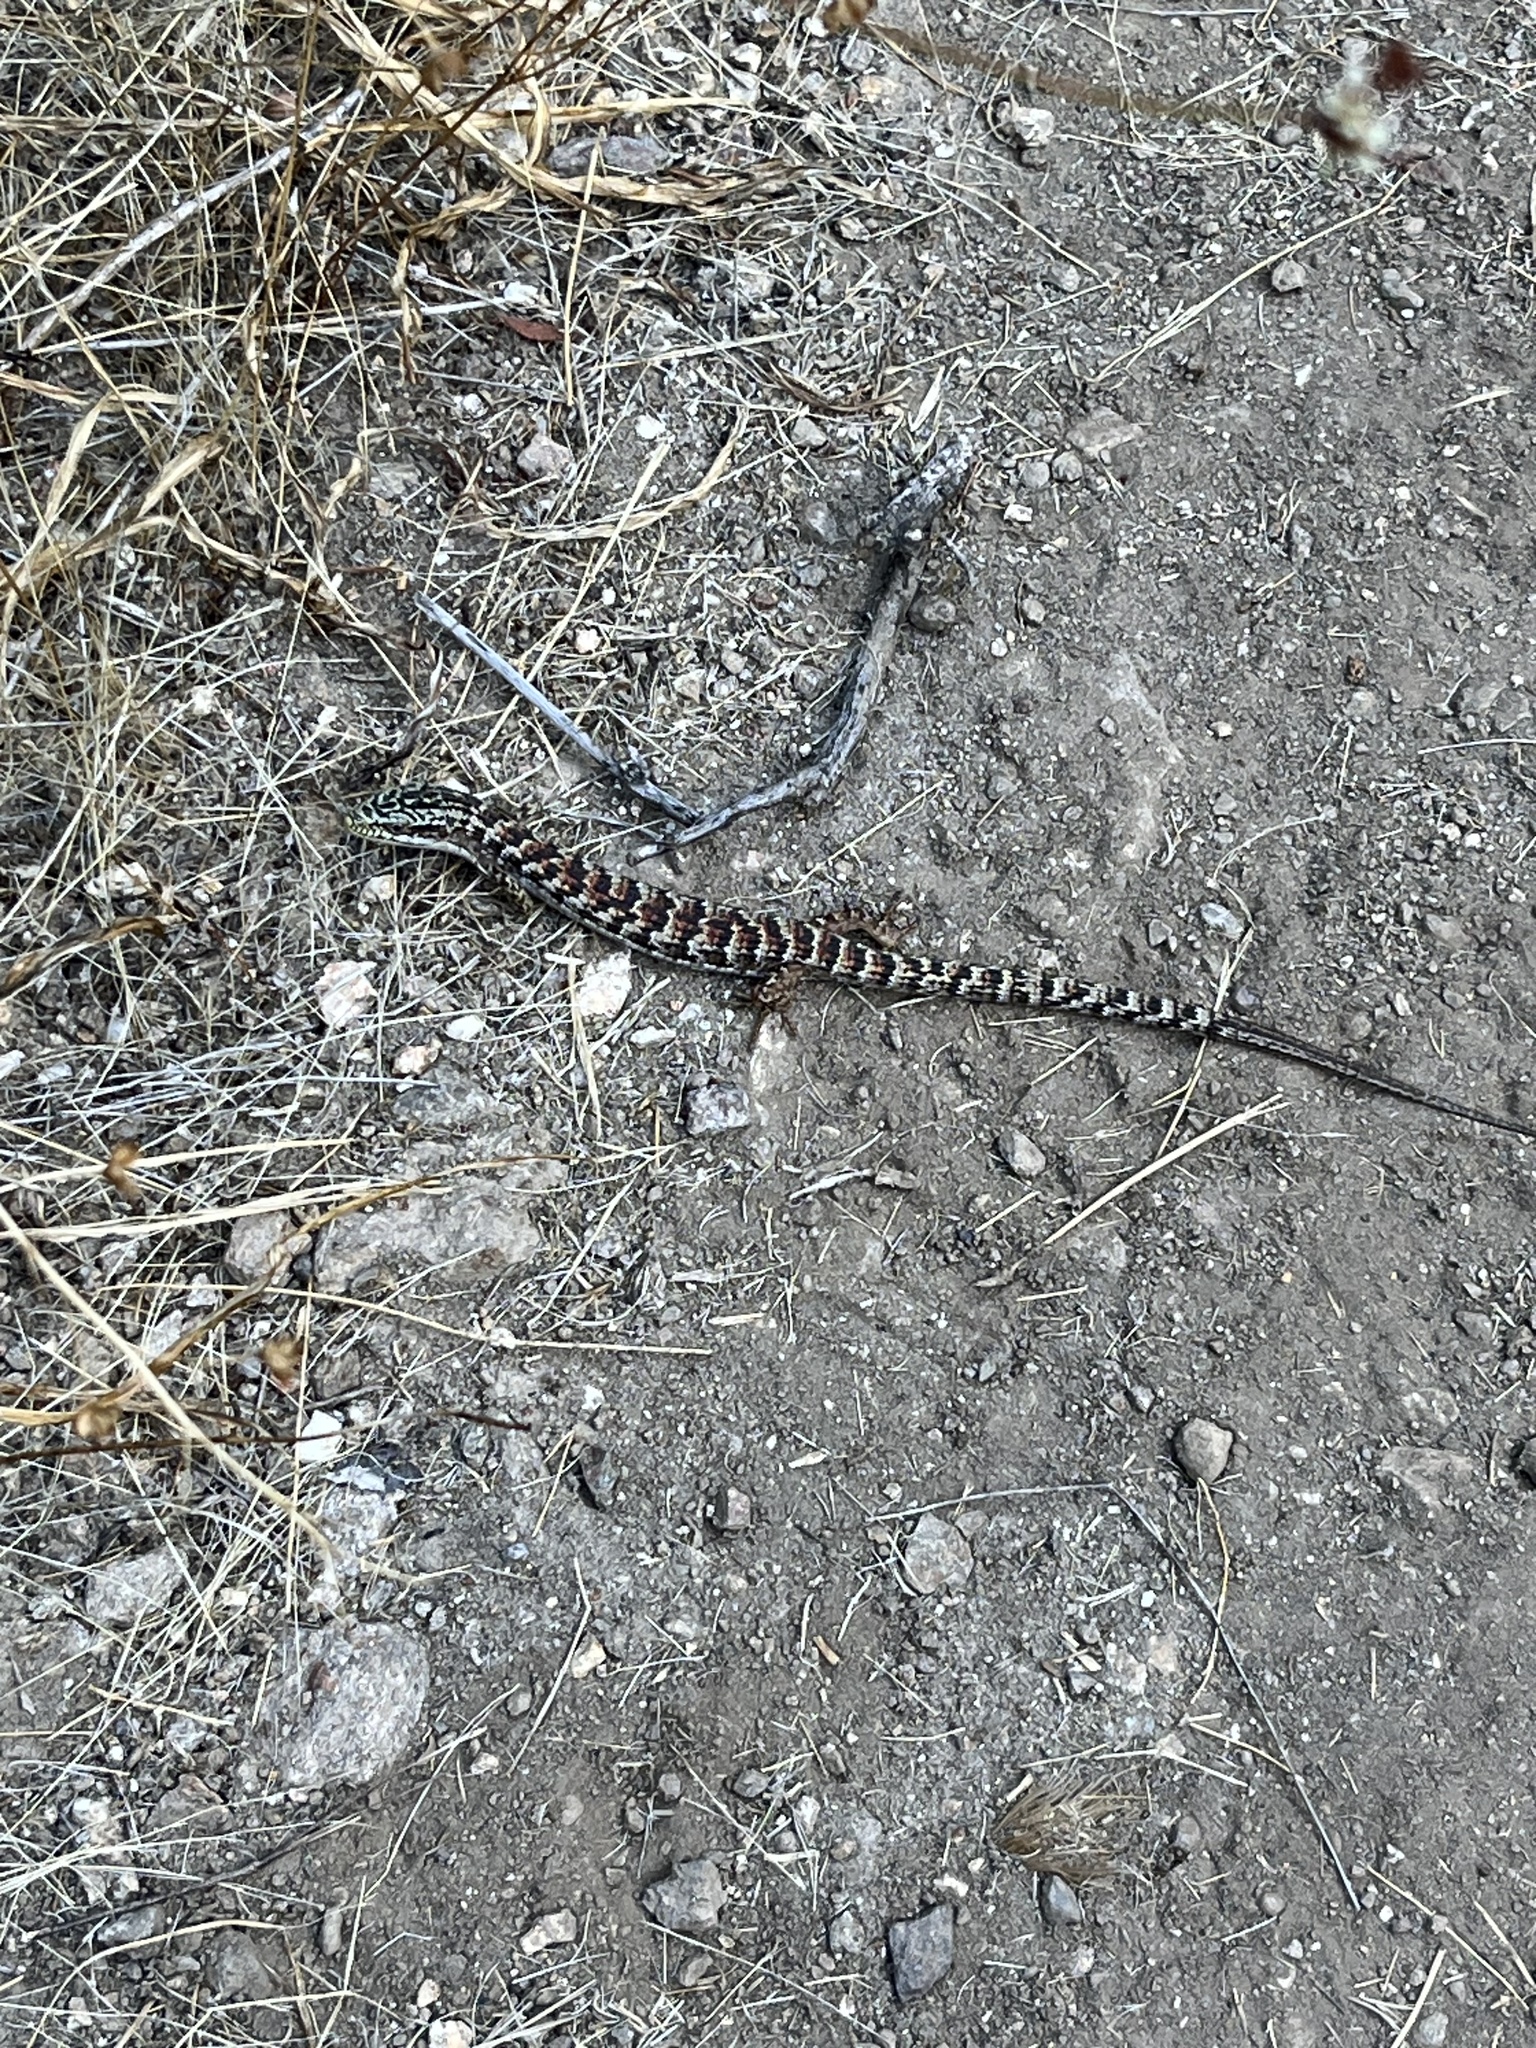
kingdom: Animalia
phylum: Chordata
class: Squamata
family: Anguidae
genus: Elgaria
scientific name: Elgaria multicarinata
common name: Southern alligator lizard
